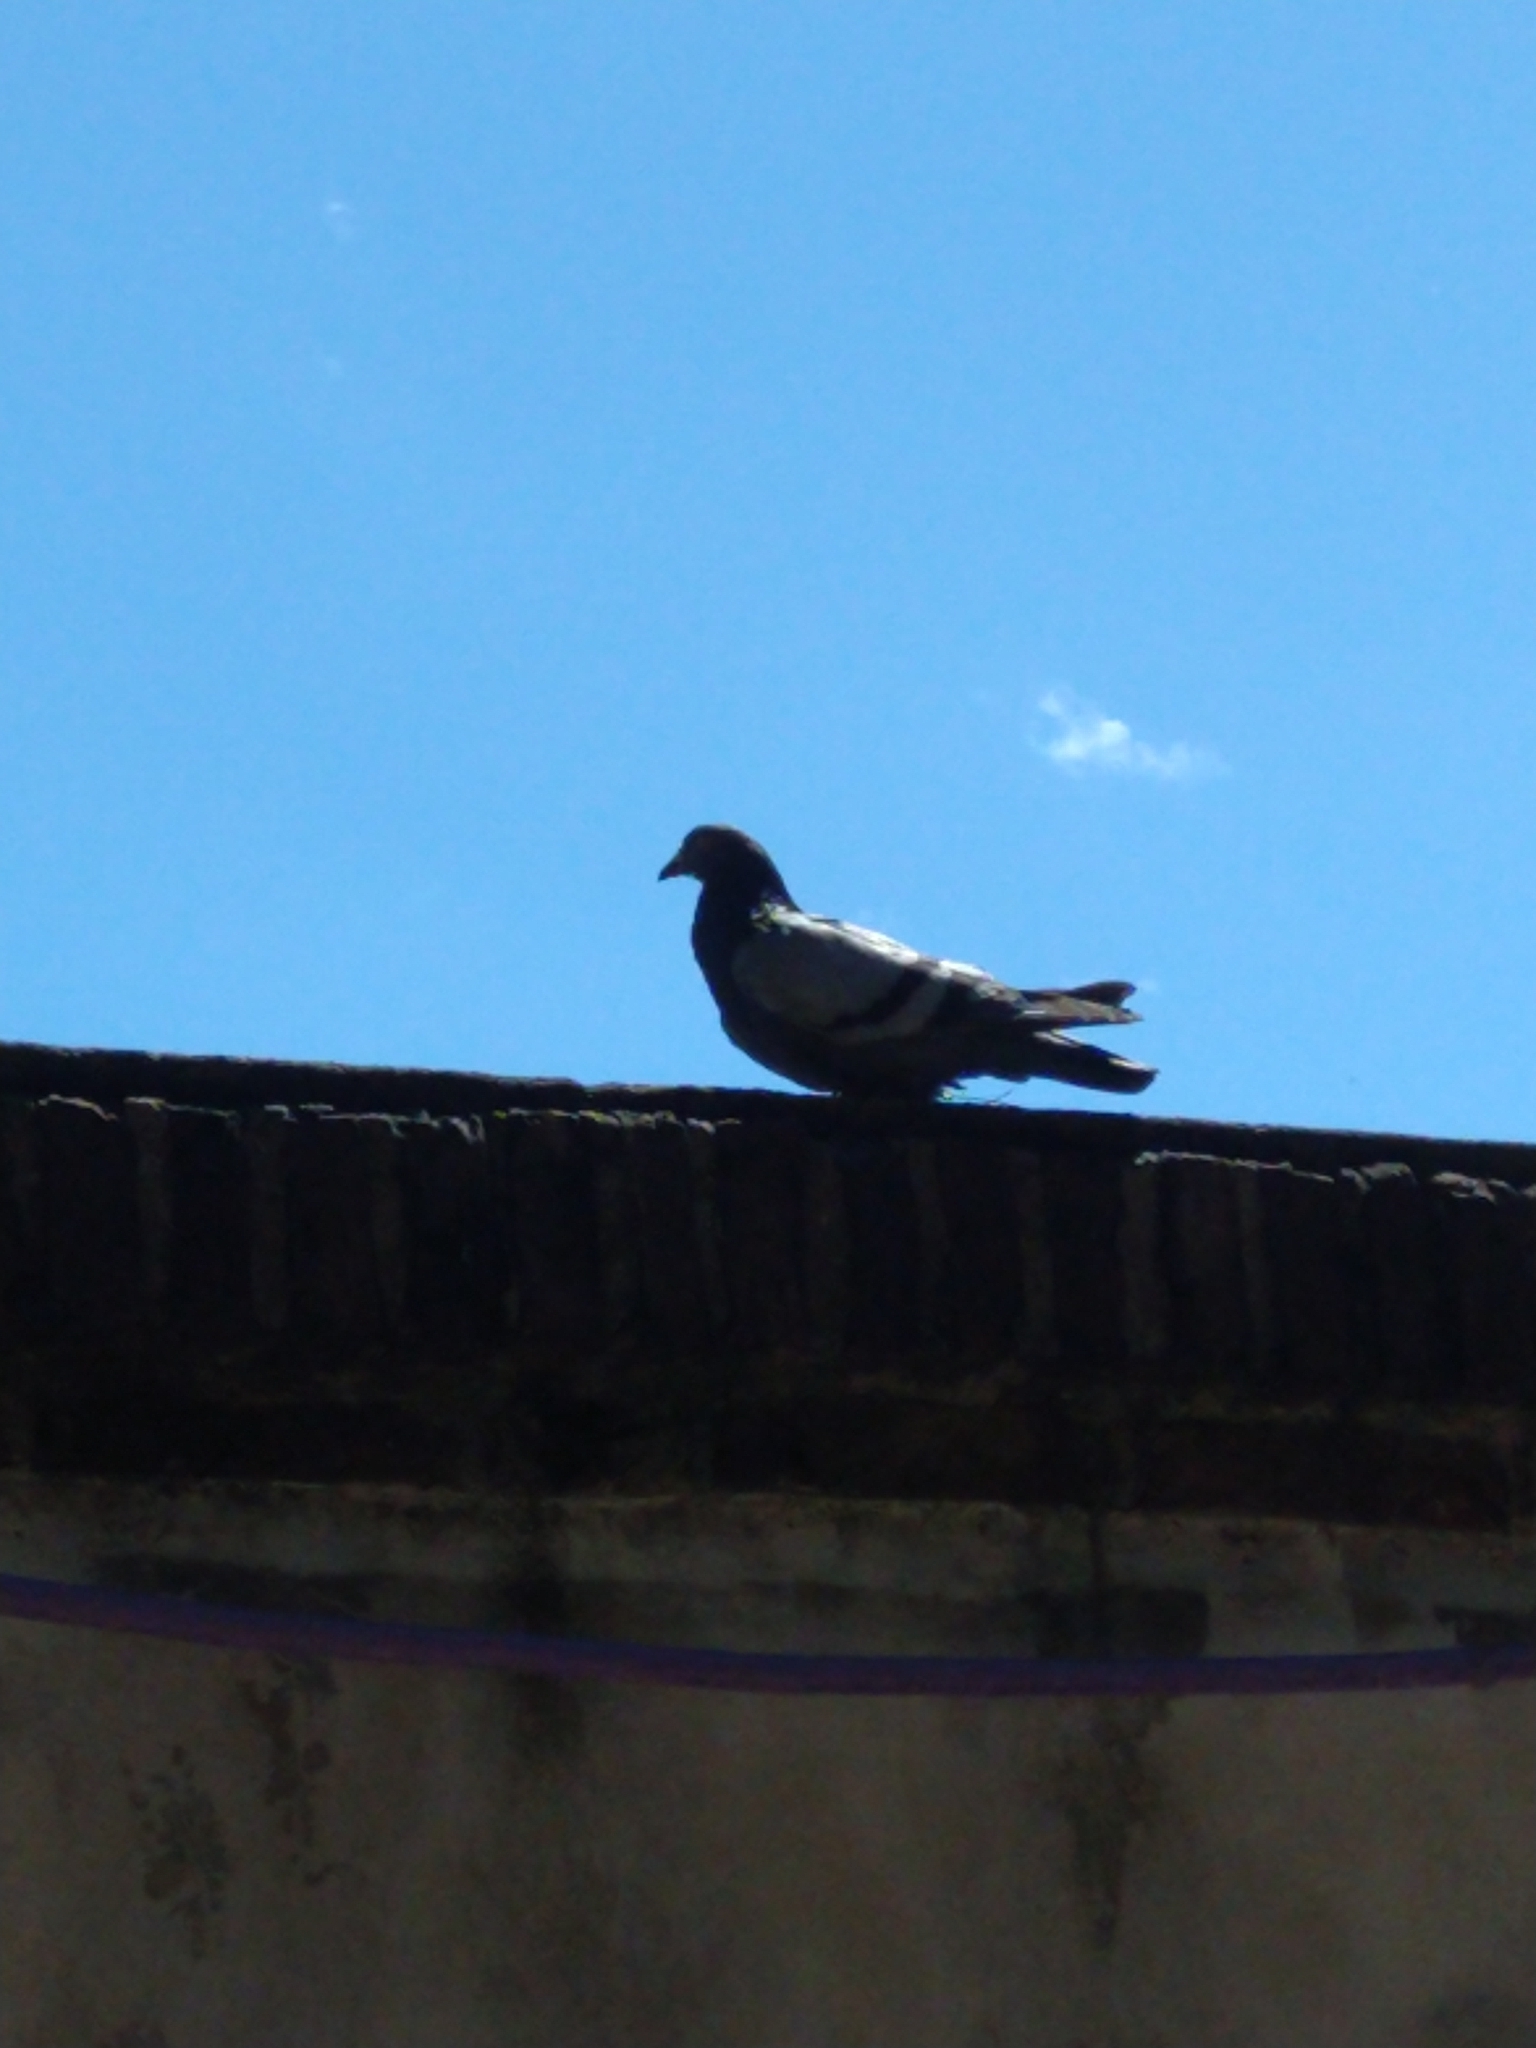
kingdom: Animalia
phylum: Chordata
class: Aves
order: Columbiformes
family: Columbidae
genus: Columba
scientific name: Columba livia
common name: Rock pigeon
